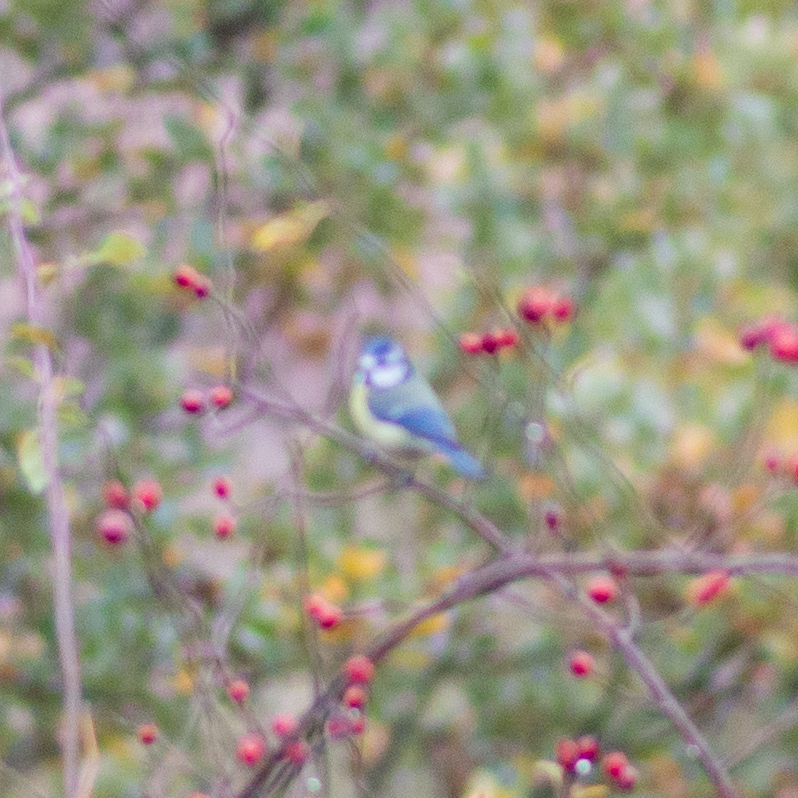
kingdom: Animalia
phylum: Chordata
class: Aves
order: Passeriformes
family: Paridae
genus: Cyanistes
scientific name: Cyanistes caeruleus
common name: Eurasian blue tit
